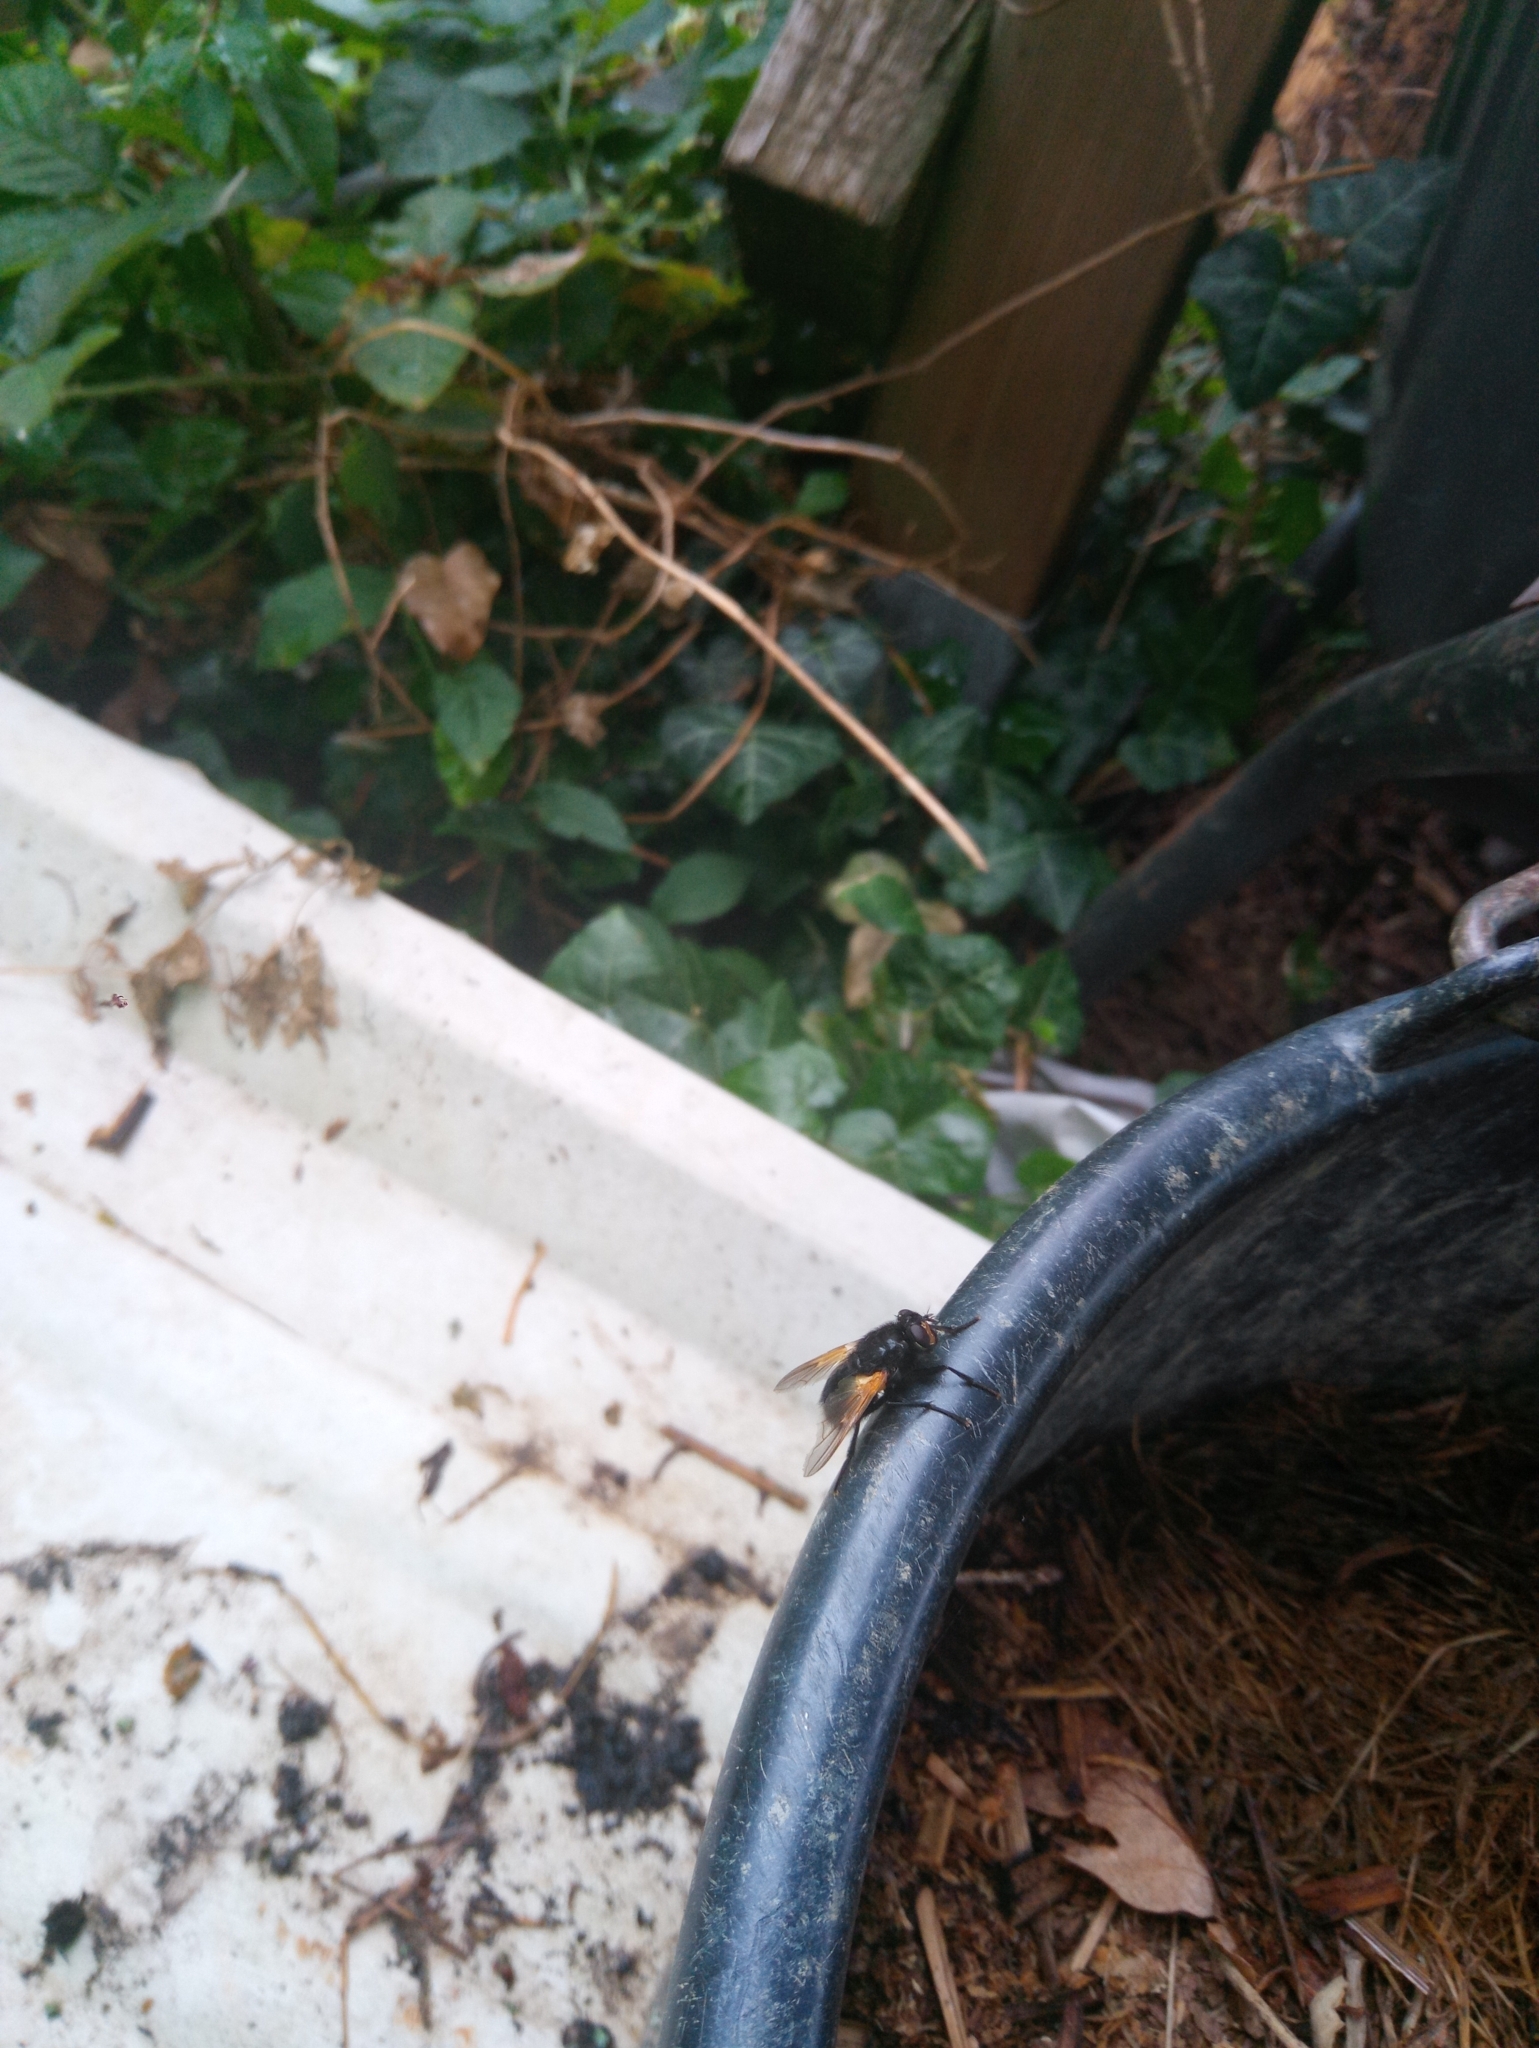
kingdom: Animalia
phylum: Arthropoda
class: Insecta
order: Diptera
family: Muscidae
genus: Mesembrina
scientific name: Mesembrina meridiana
